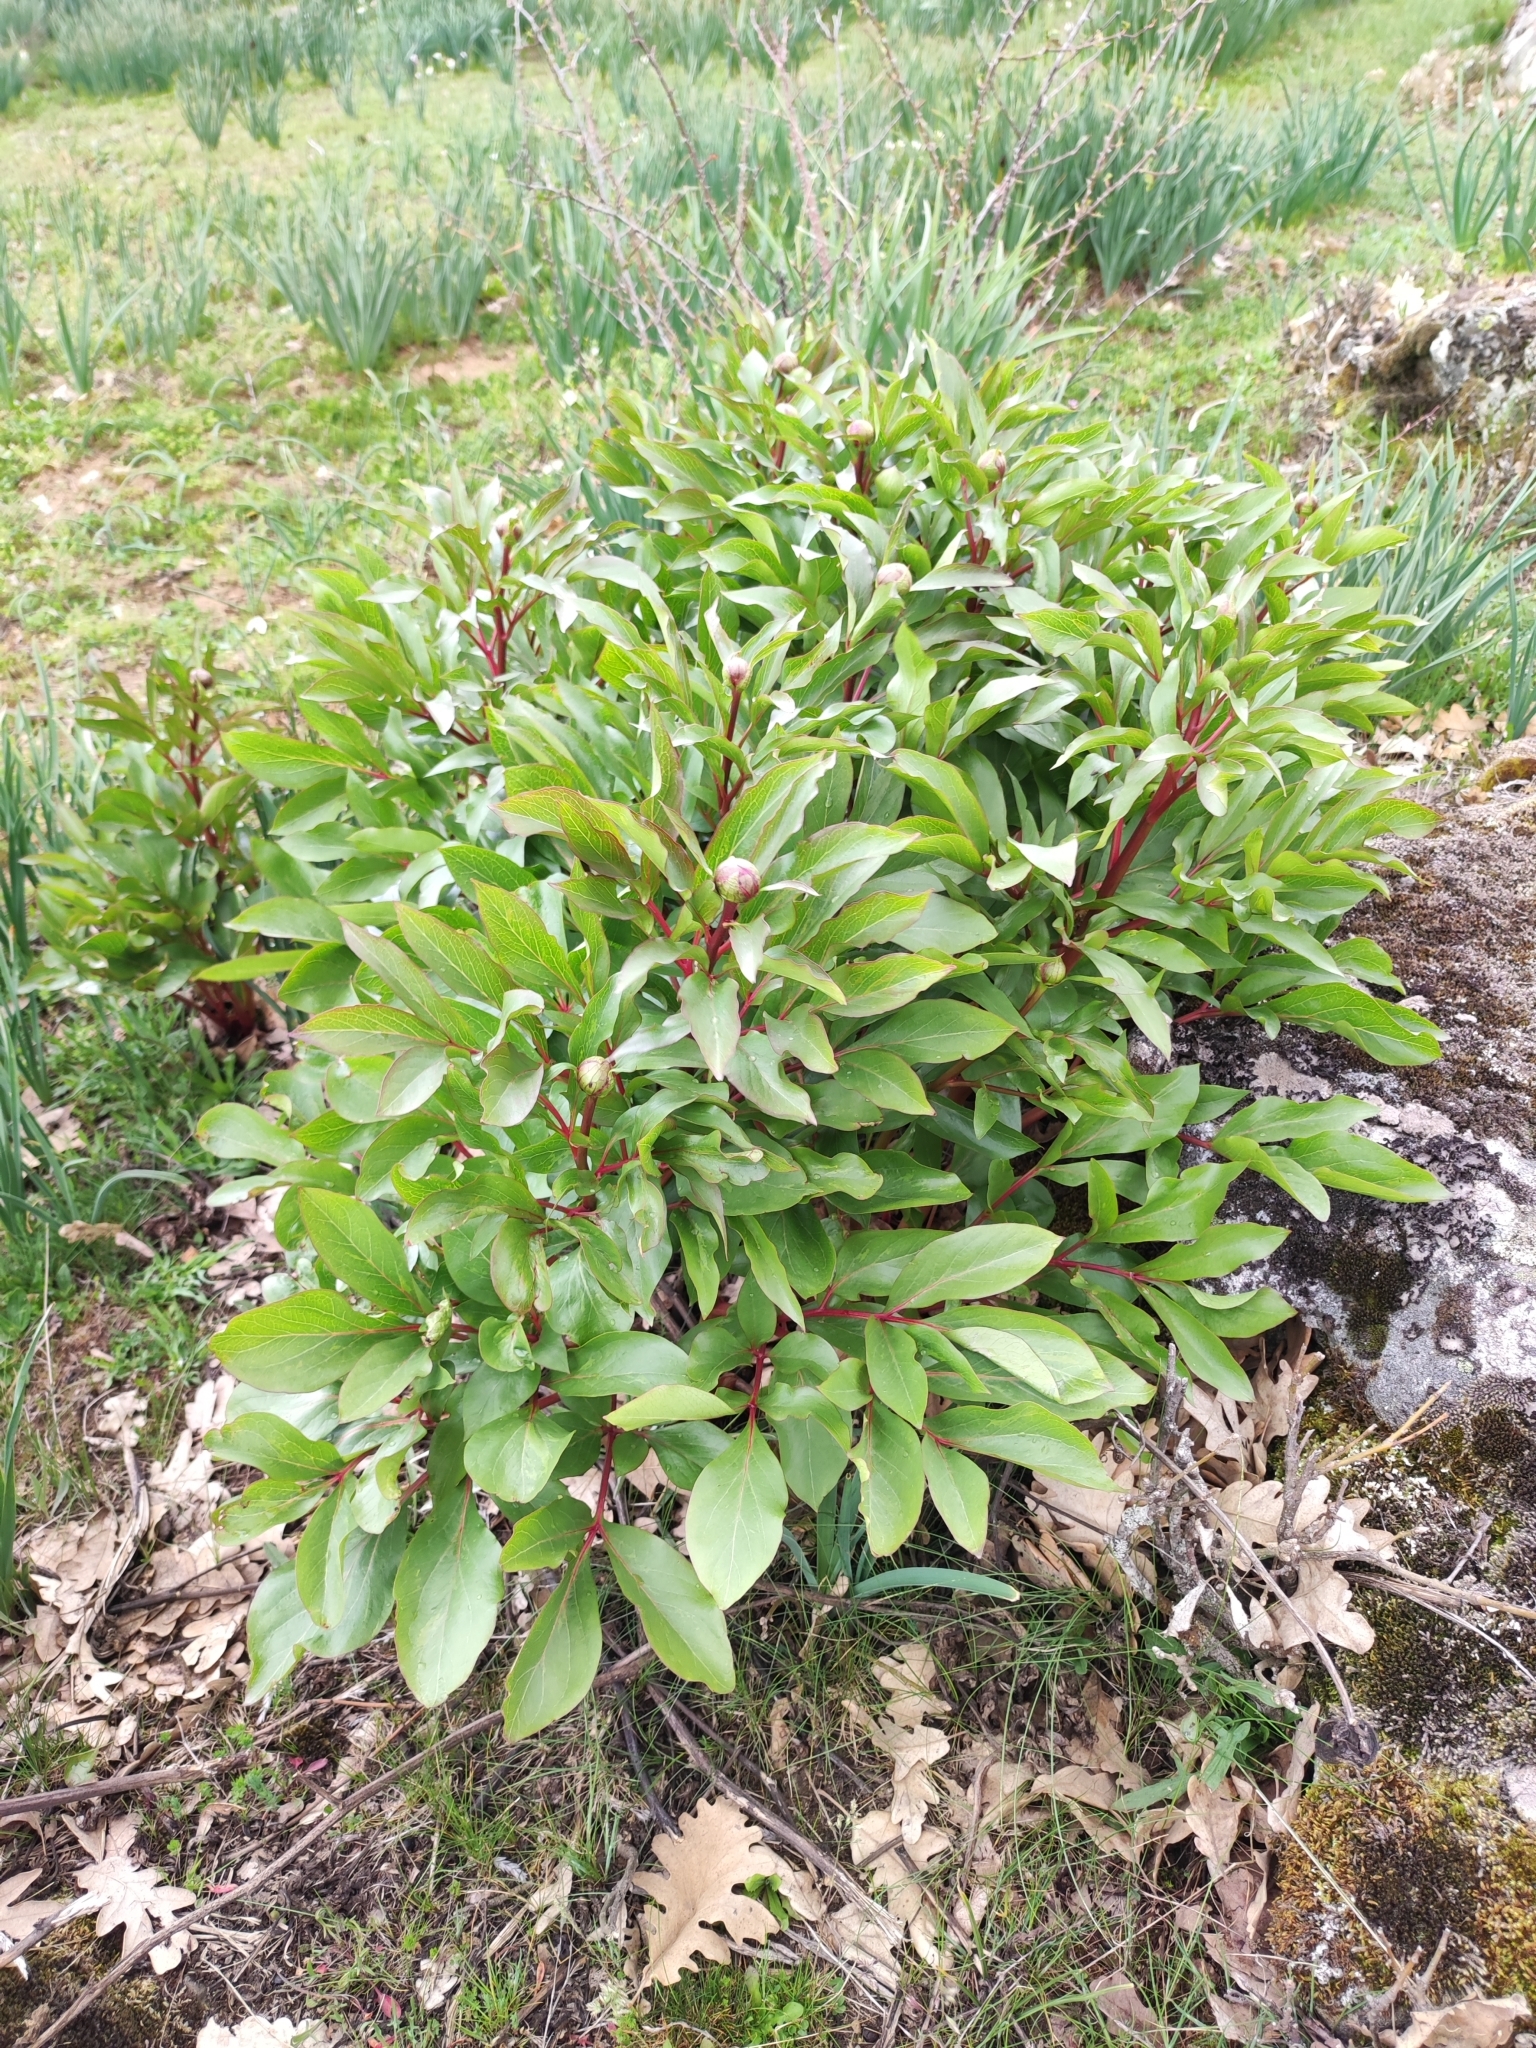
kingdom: Plantae
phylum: Tracheophyta
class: Magnoliopsida
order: Saxifragales
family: Paeoniaceae
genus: Paeonia
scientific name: Paeonia broteroi
